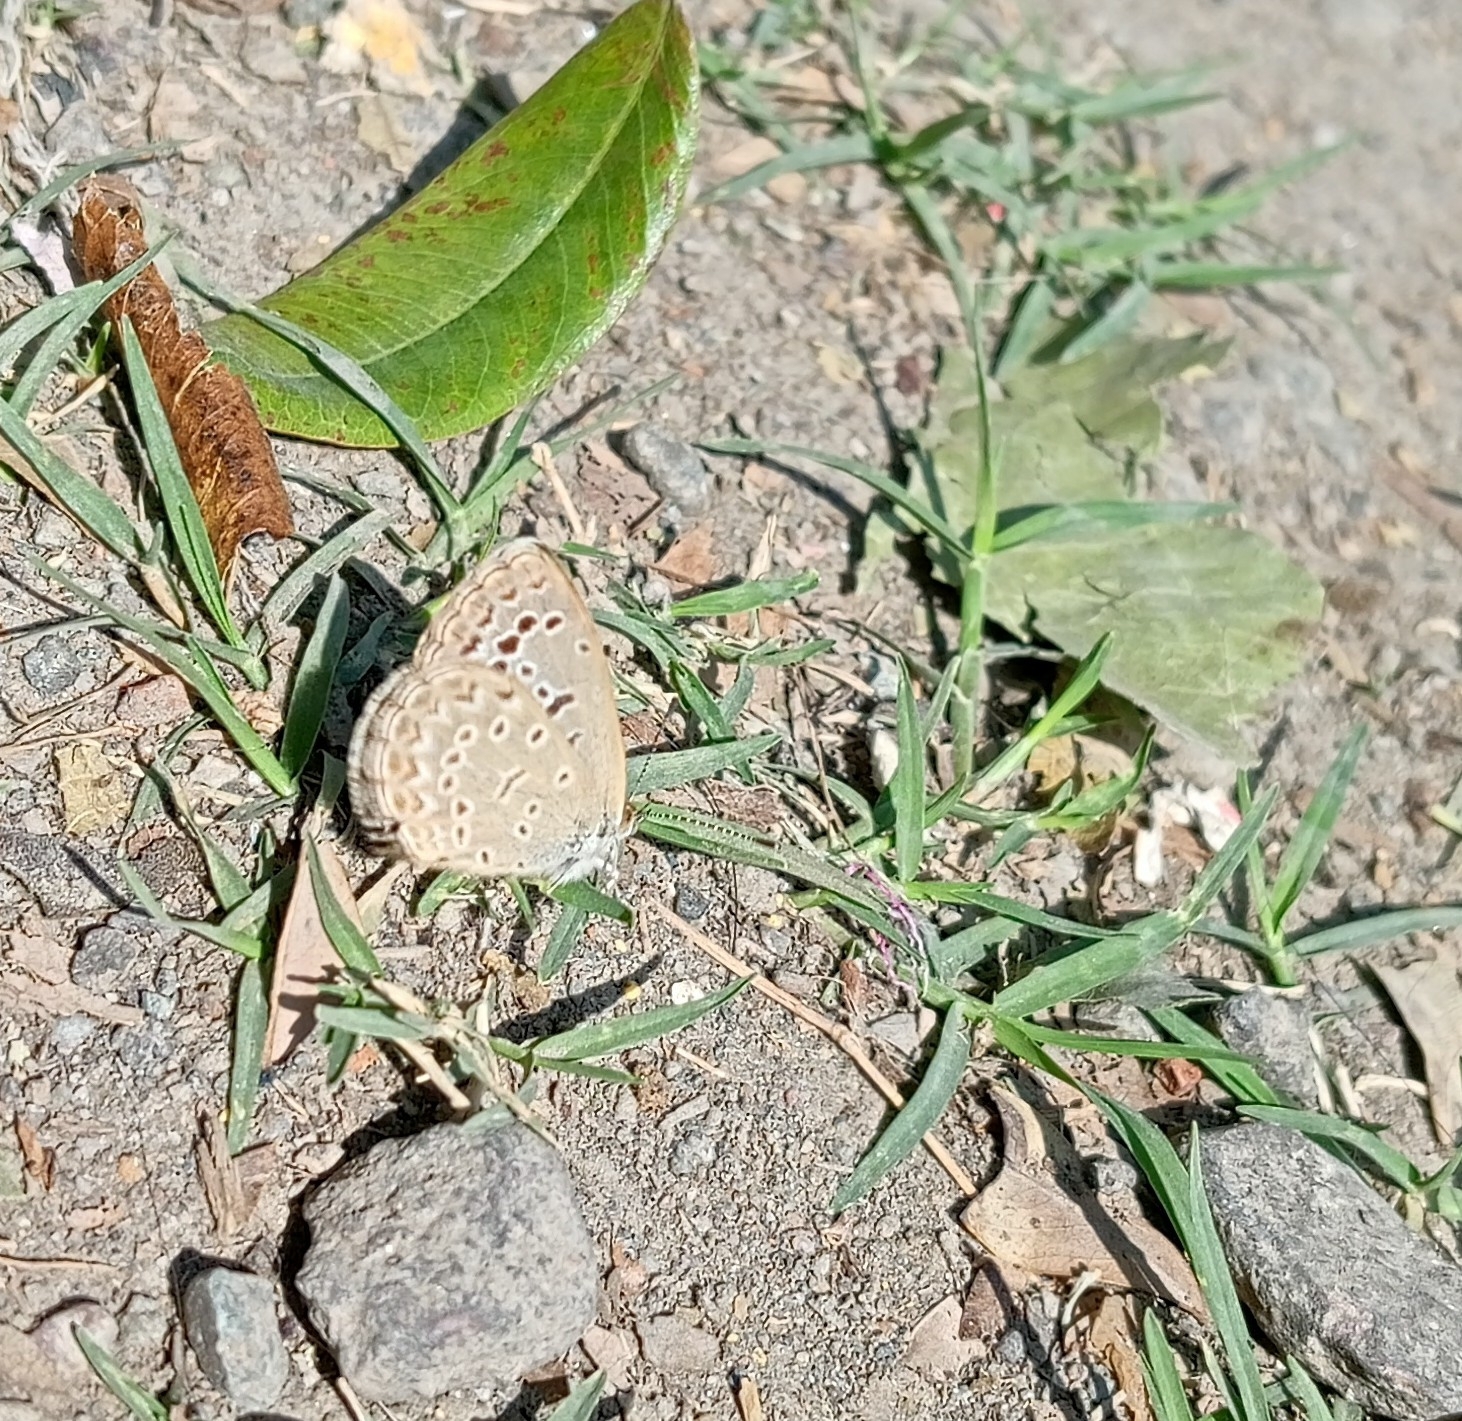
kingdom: Animalia
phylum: Arthropoda
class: Insecta
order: Lepidoptera
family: Lycaenidae
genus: Pseudozizeeria
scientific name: Pseudozizeeria maha
